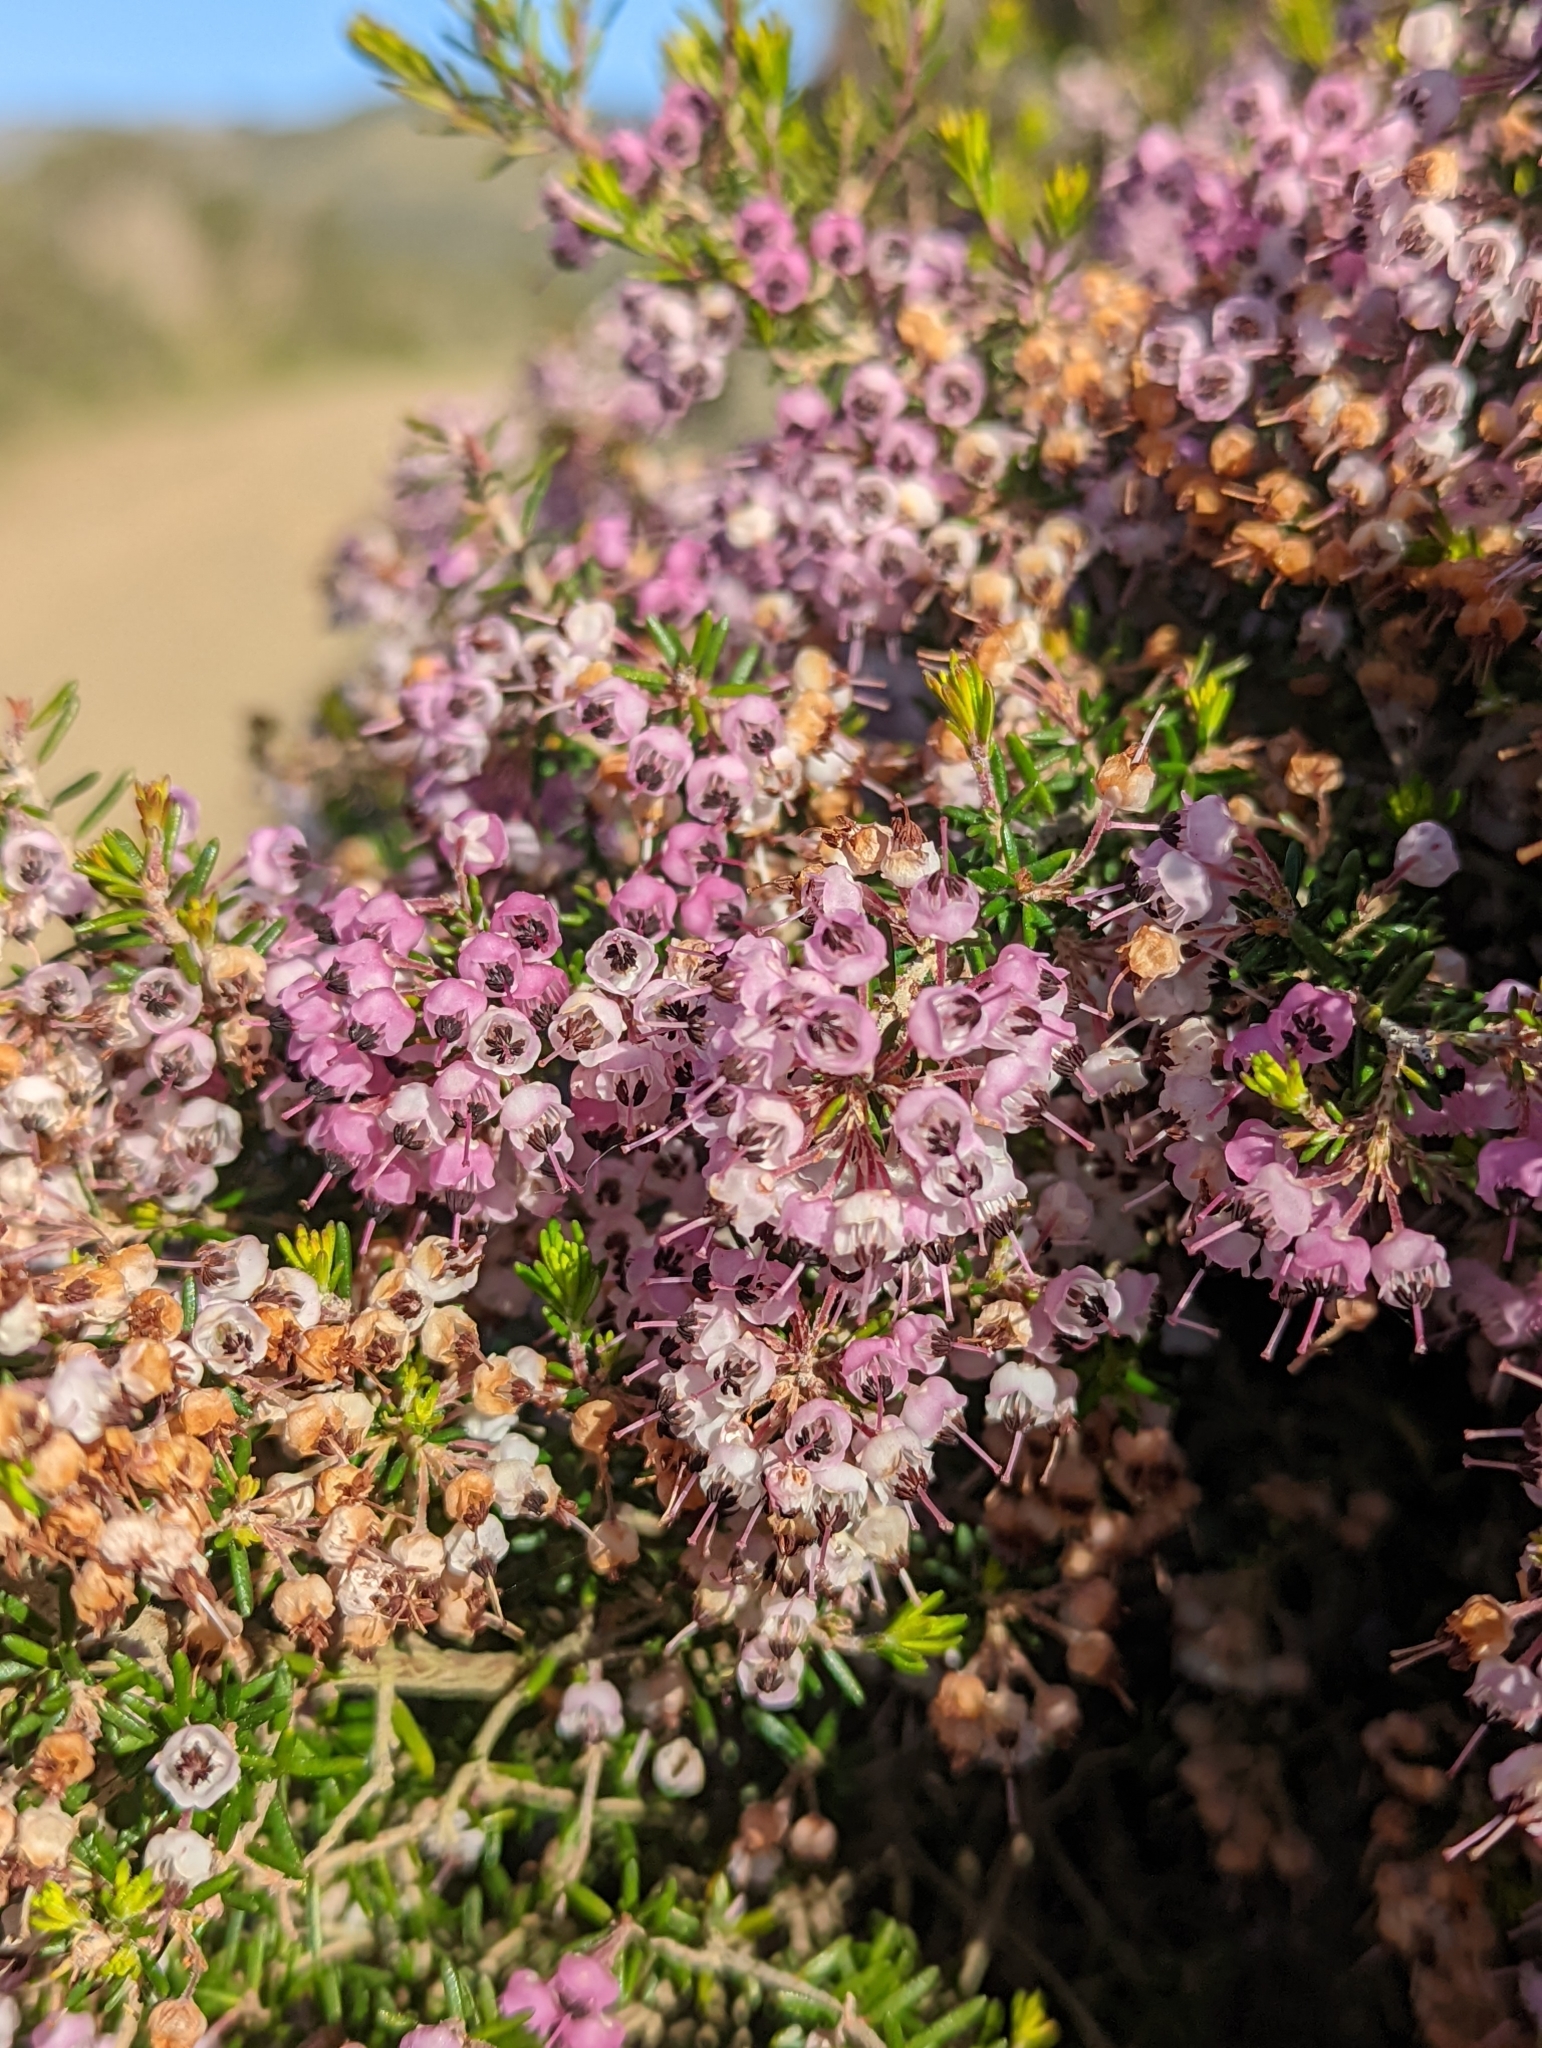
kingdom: Plantae
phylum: Tracheophyta
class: Magnoliopsida
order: Ericales
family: Ericaceae
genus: Erica
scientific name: Erica canaliculata
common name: Hairy grey heather
